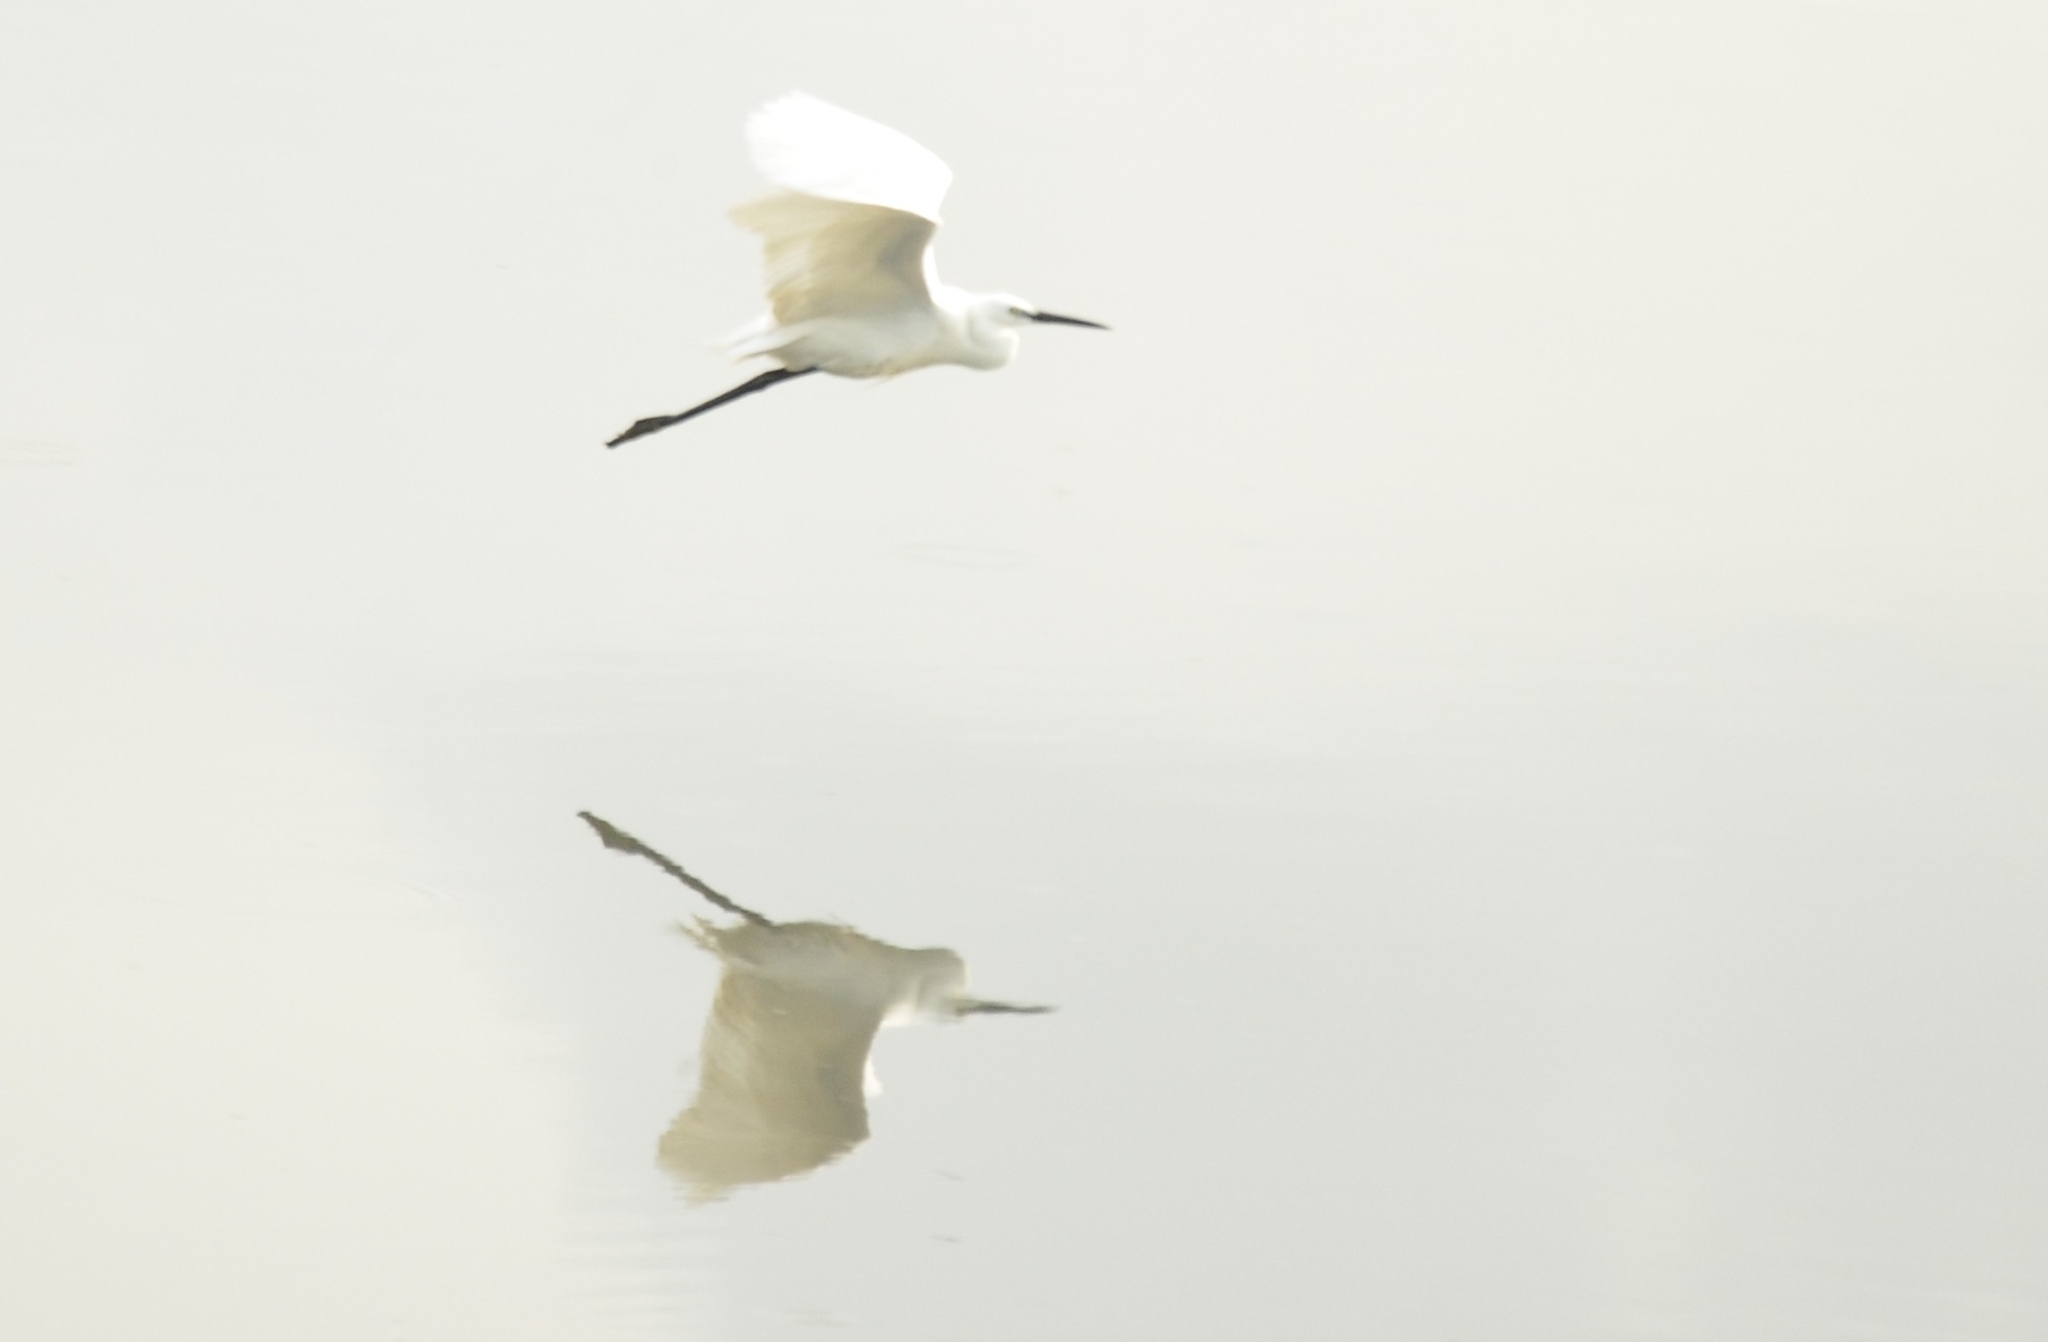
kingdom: Animalia
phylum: Chordata
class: Aves
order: Pelecaniformes
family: Ardeidae
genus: Egretta
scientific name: Egretta garzetta
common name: Little egret
